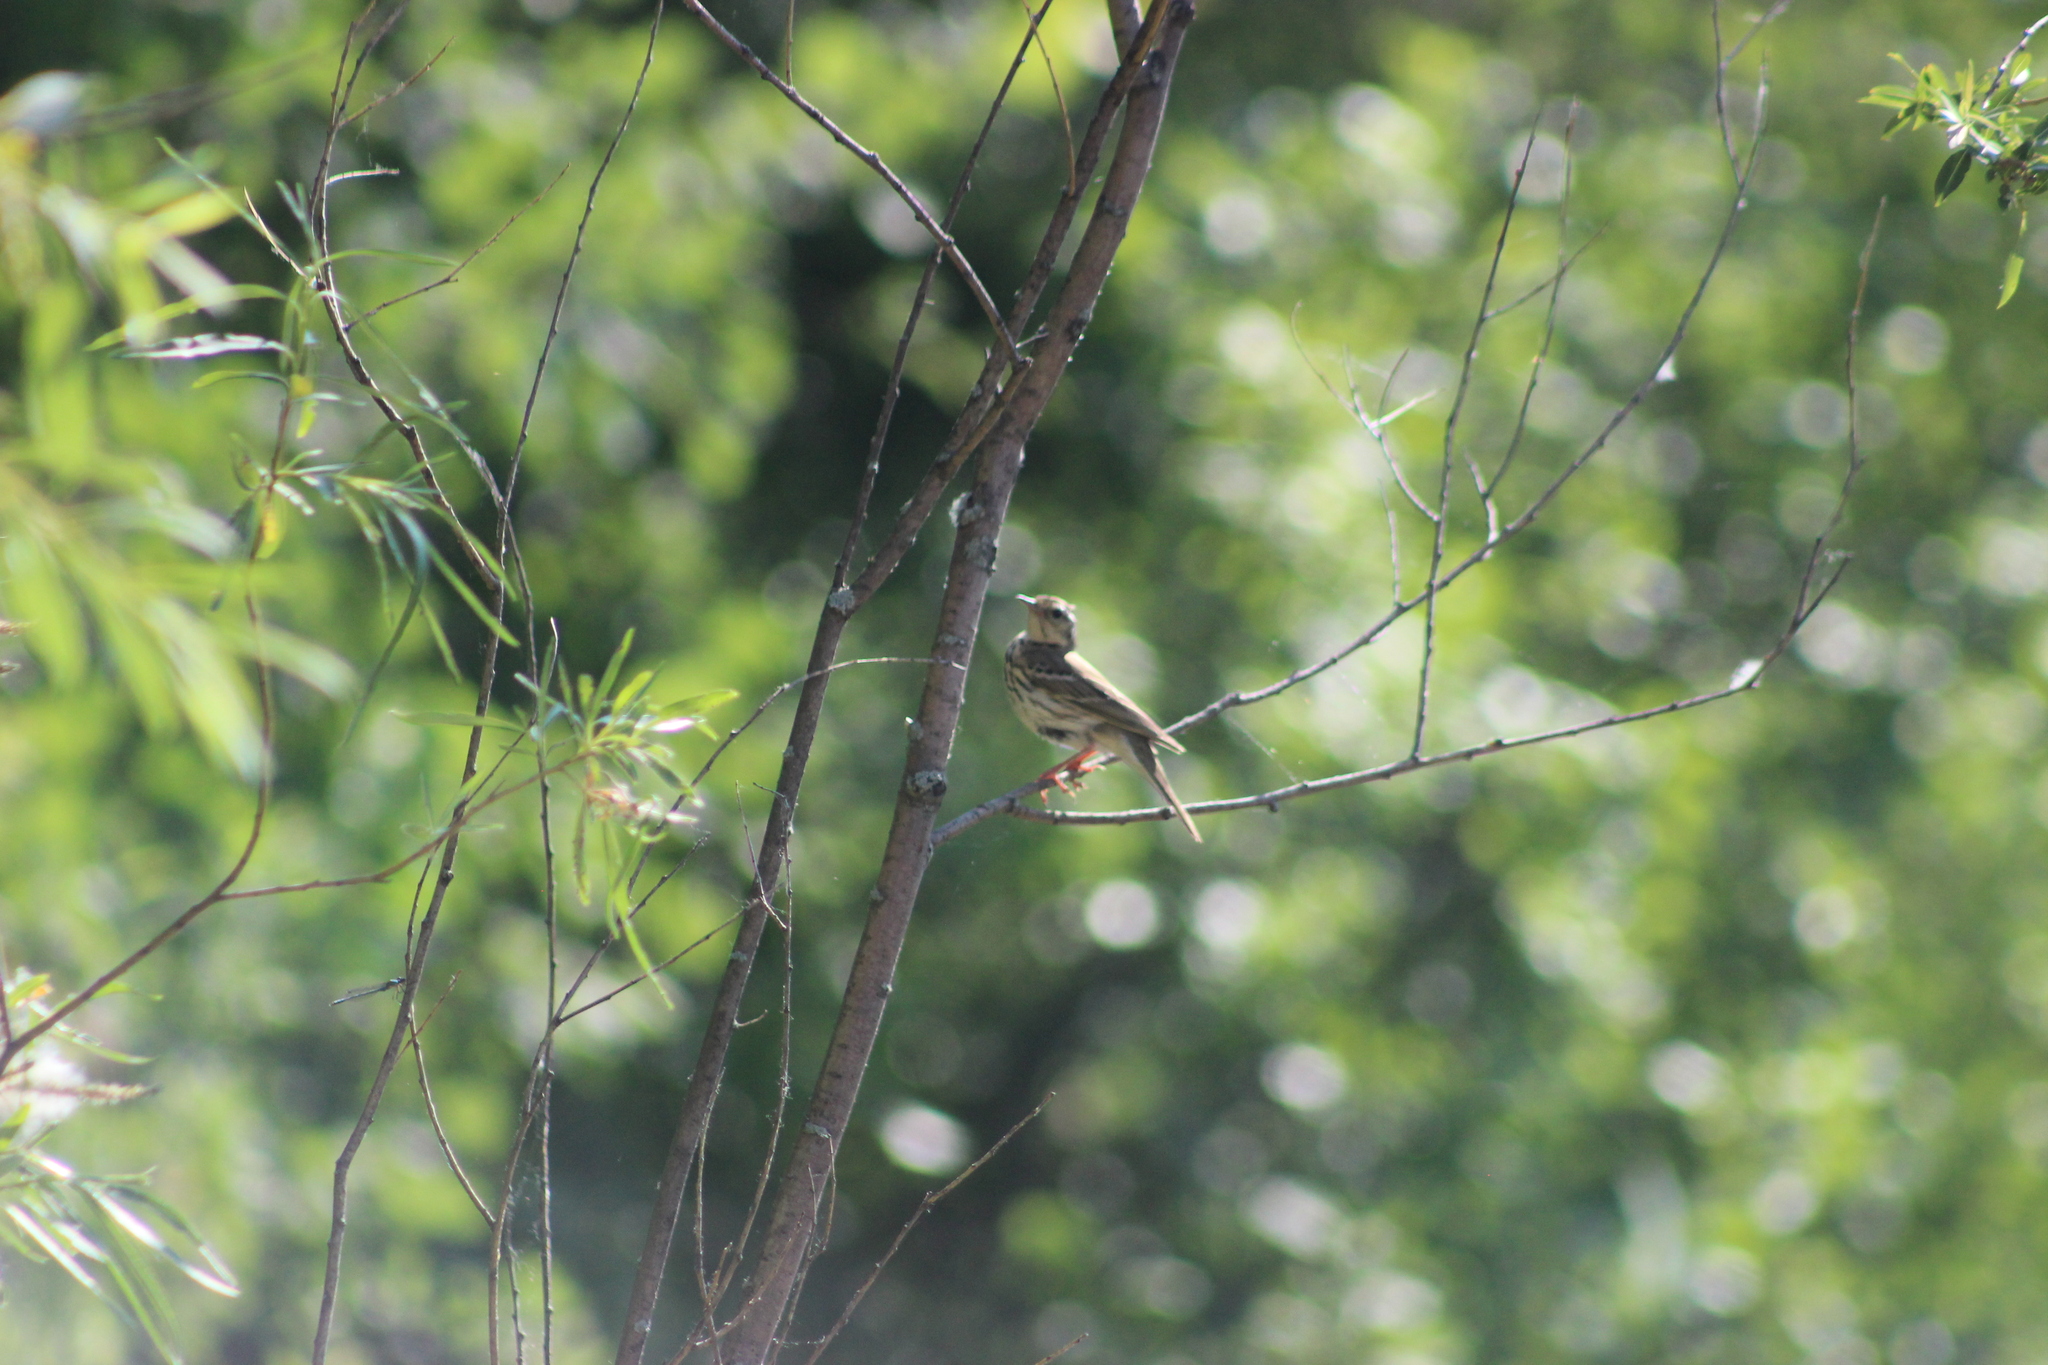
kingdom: Animalia
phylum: Chordata
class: Aves
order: Passeriformes
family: Motacillidae
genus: Anthus
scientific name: Anthus hodgsoni
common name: Olive-backed pipit
